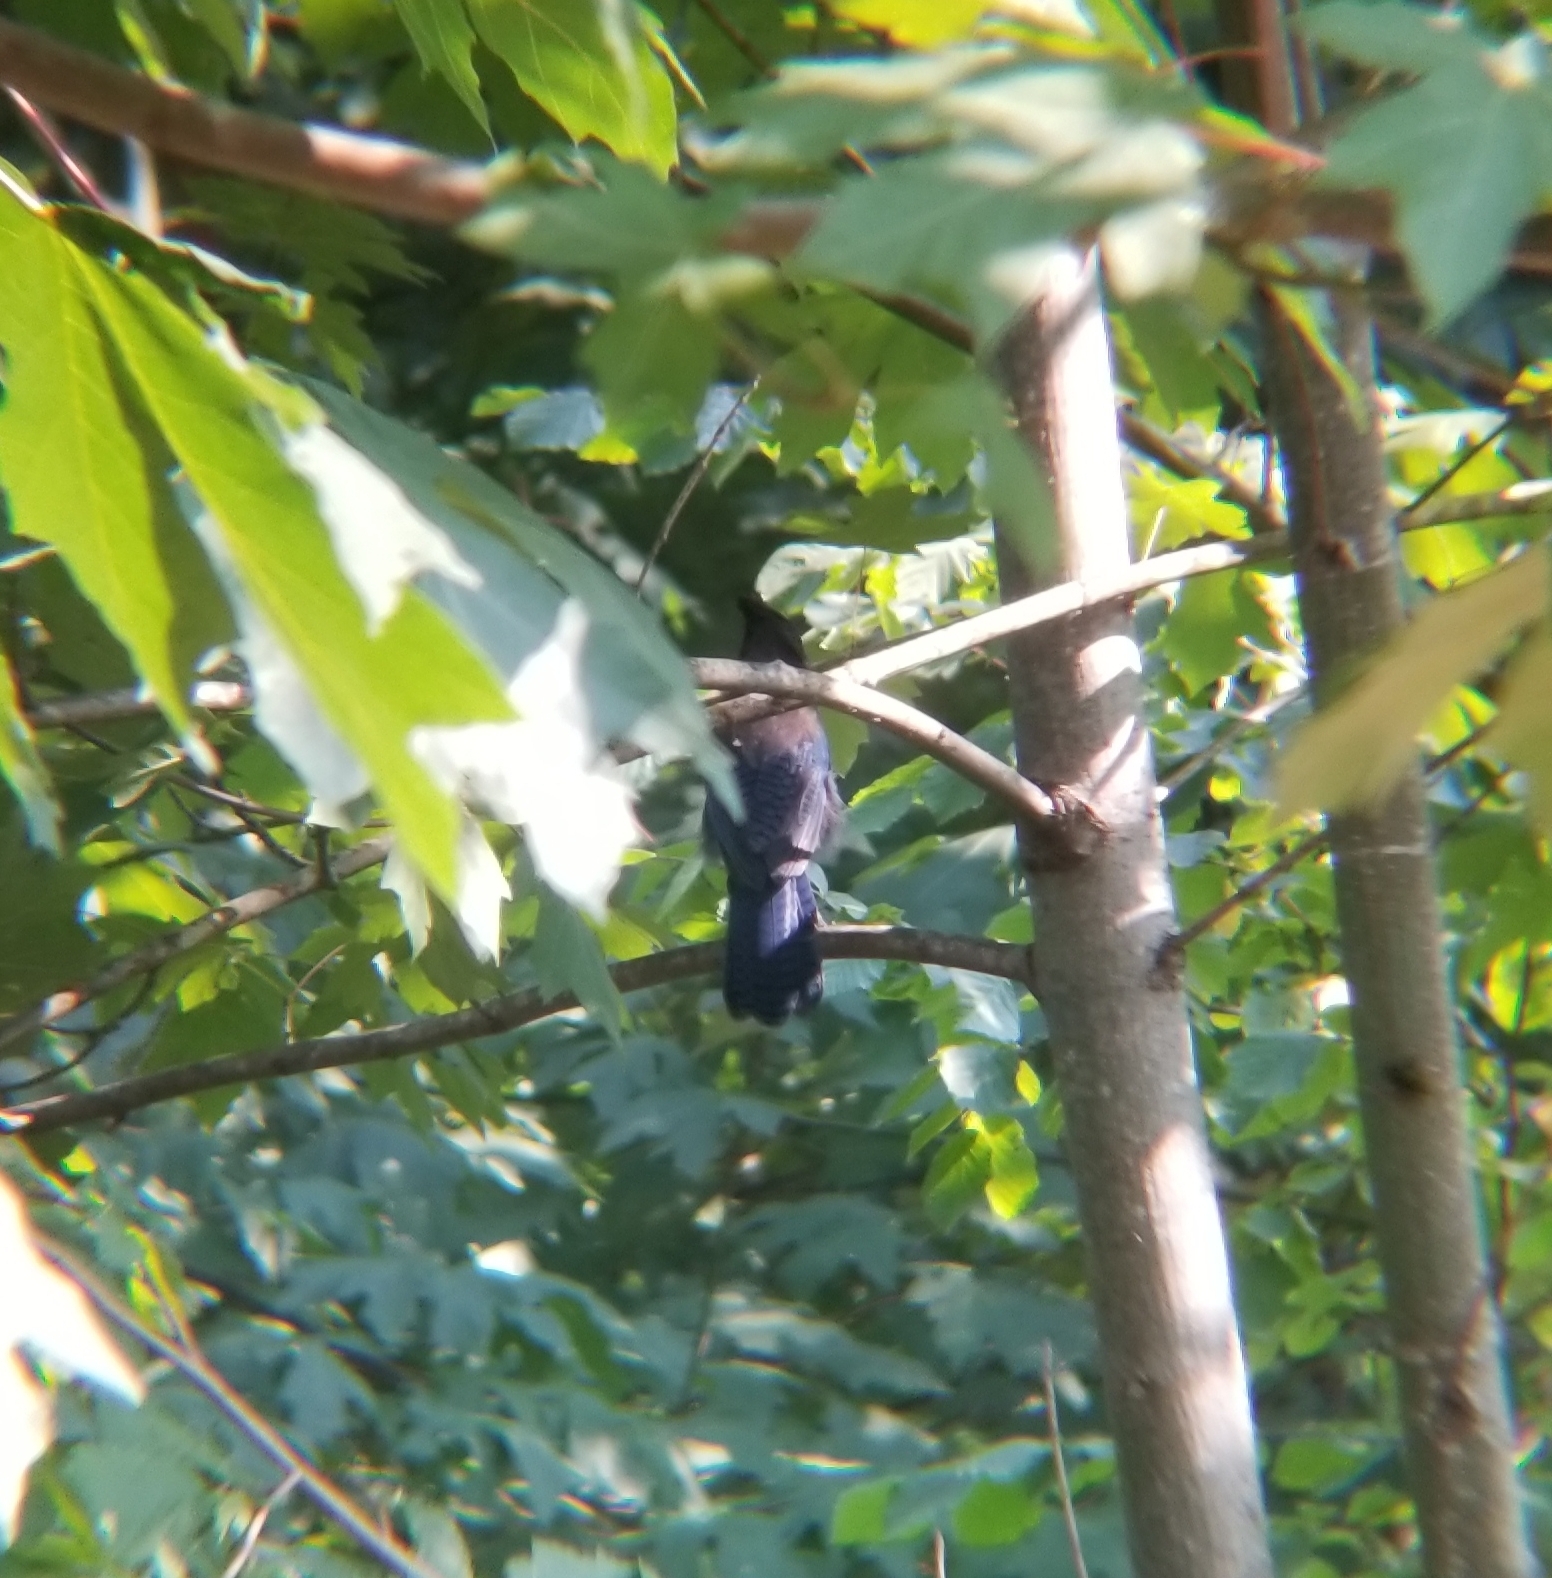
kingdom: Animalia
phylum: Chordata
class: Aves
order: Passeriformes
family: Corvidae
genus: Cyanocitta
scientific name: Cyanocitta stelleri
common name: Steller's jay
